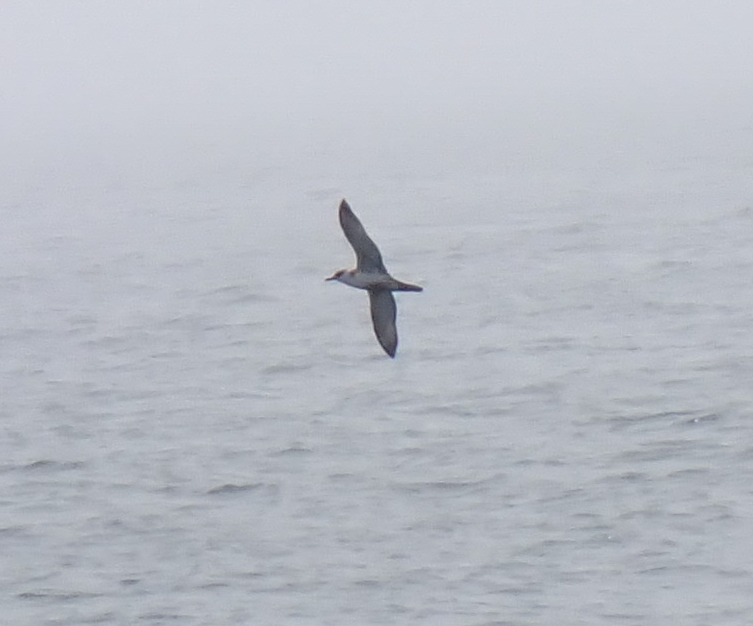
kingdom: Animalia
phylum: Chordata
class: Aves
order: Procellariiformes
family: Procellariidae
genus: Puffinus
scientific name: Puffinus gravis
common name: Great shearwater
